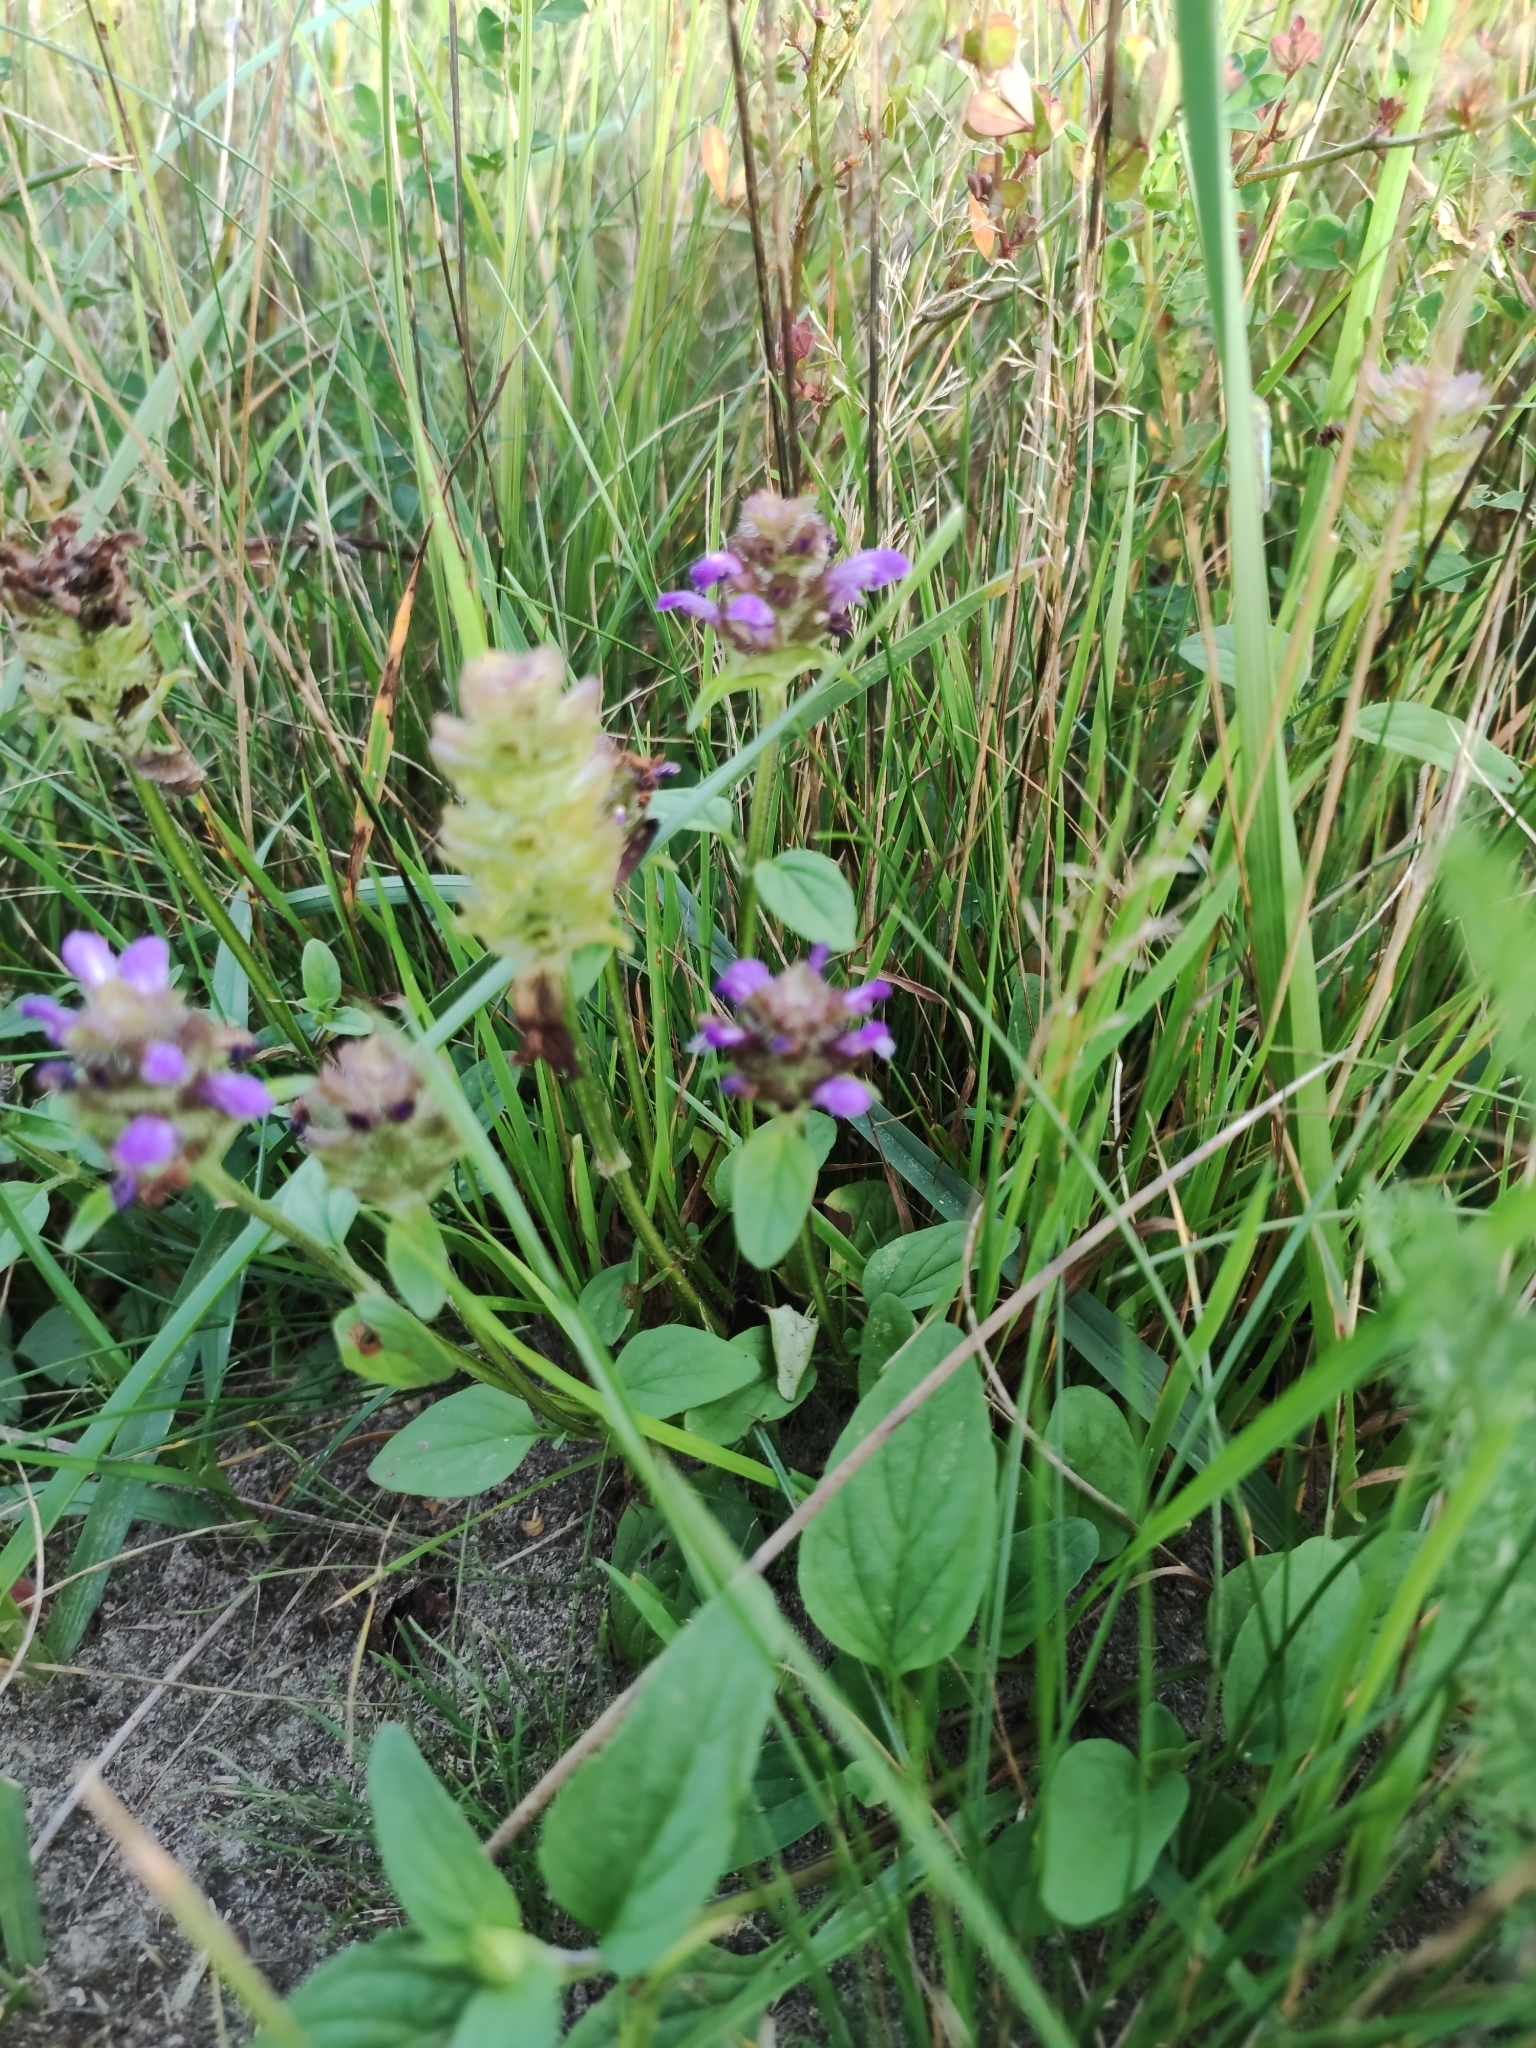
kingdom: Plantae
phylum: Tracheophyta
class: Magnoliopsida
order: Lamiales
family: Lamiaceae
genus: Prunella
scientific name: Prunella vulgaris
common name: Heal-all
